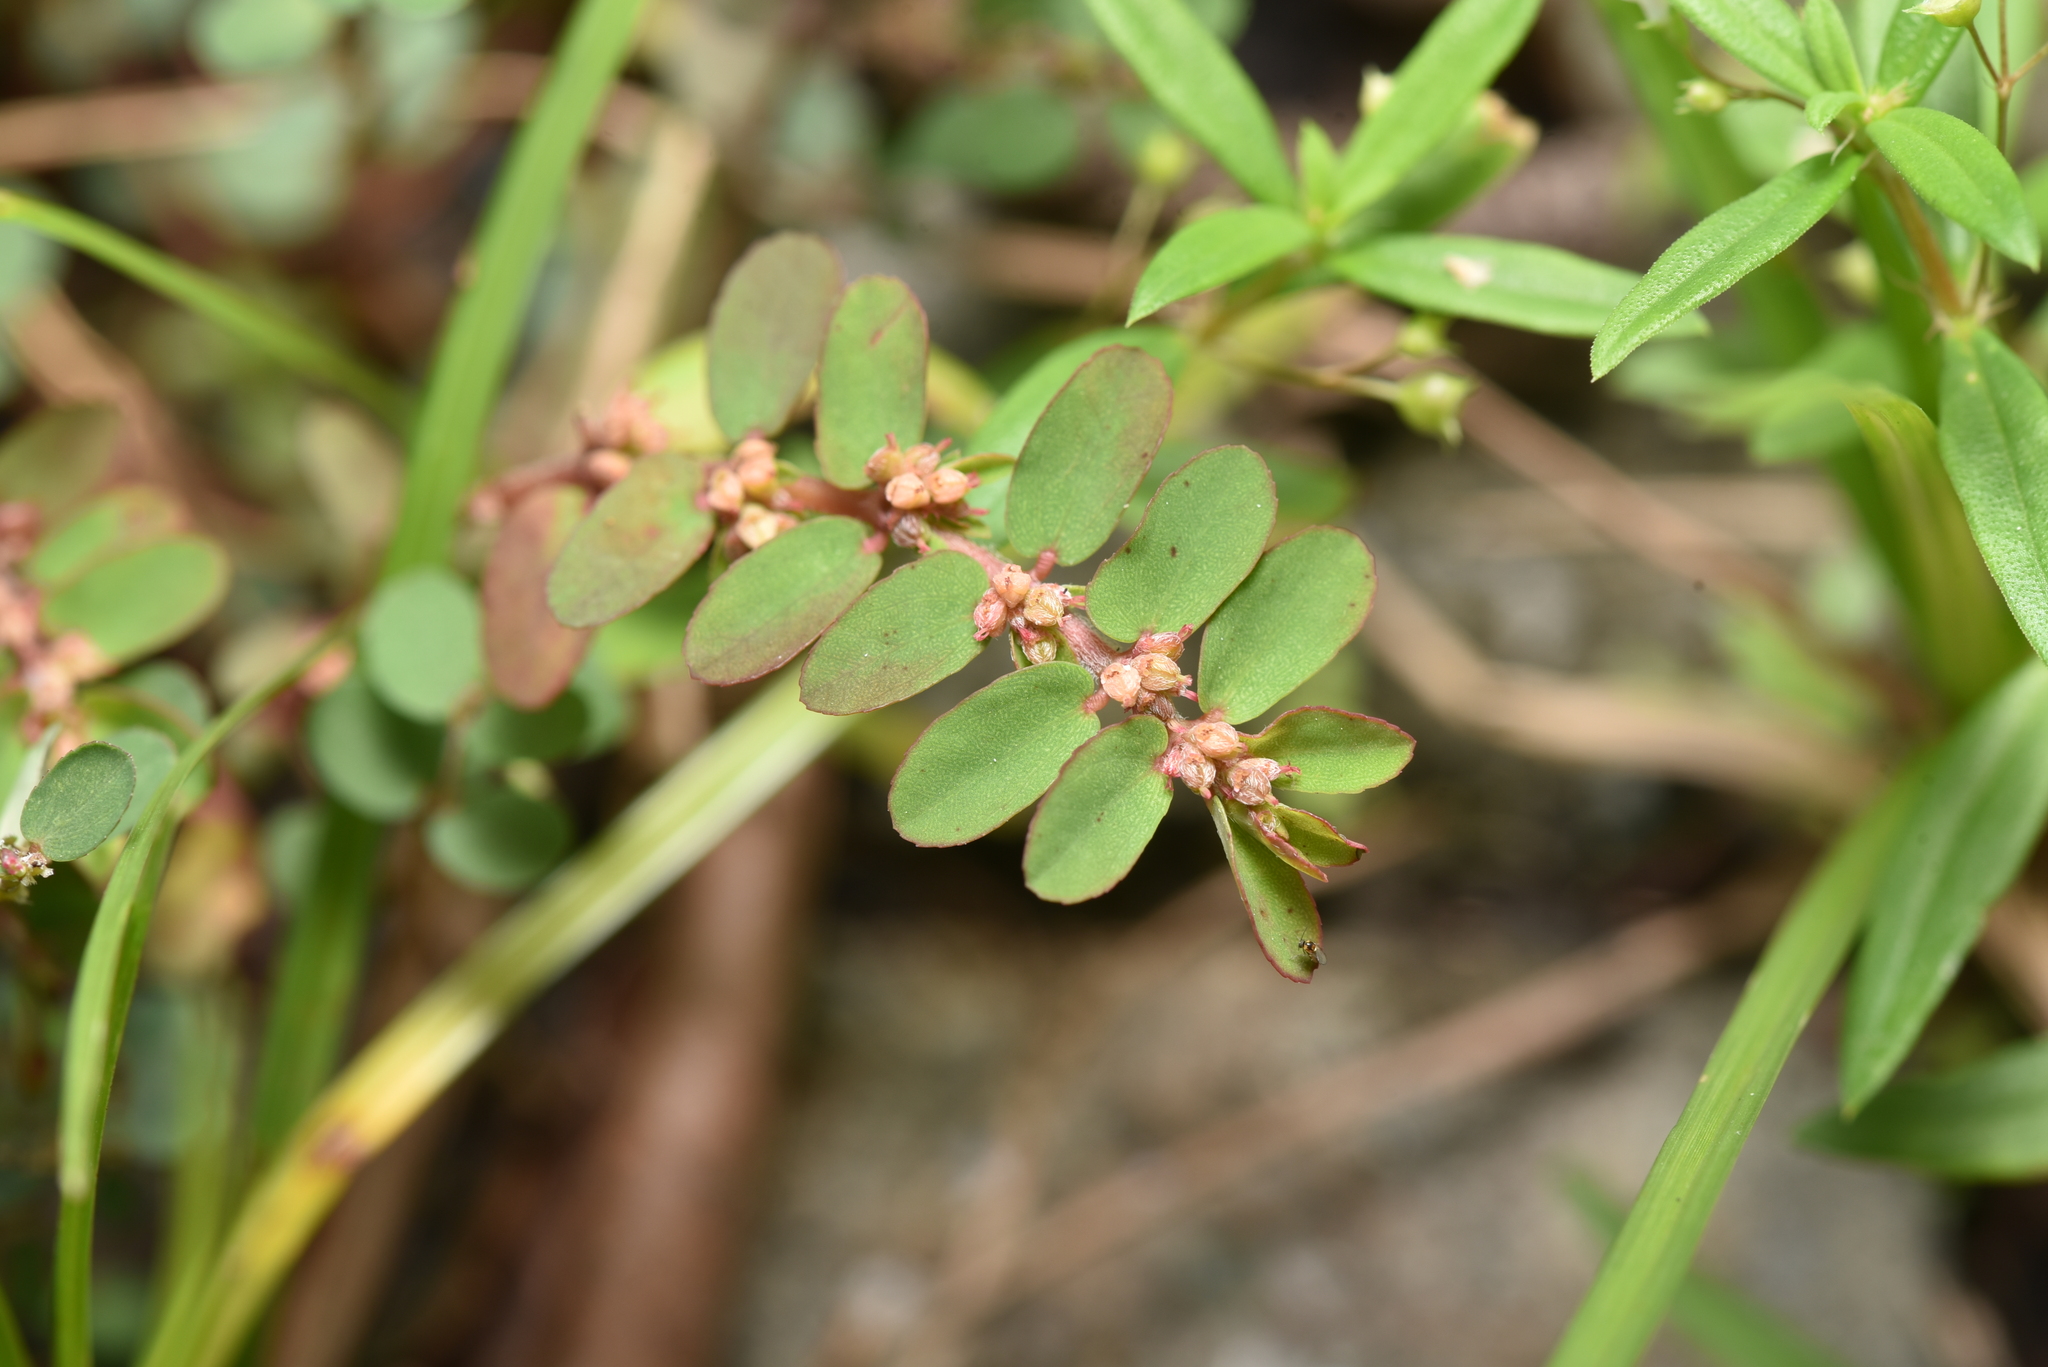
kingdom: Plantae
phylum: Tracheophyta
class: Magnoliopsida
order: Malpighiales
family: Euphorbiaceae
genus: Euphorbia
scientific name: Euphorbia thymifolia
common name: Gulf sandmat
